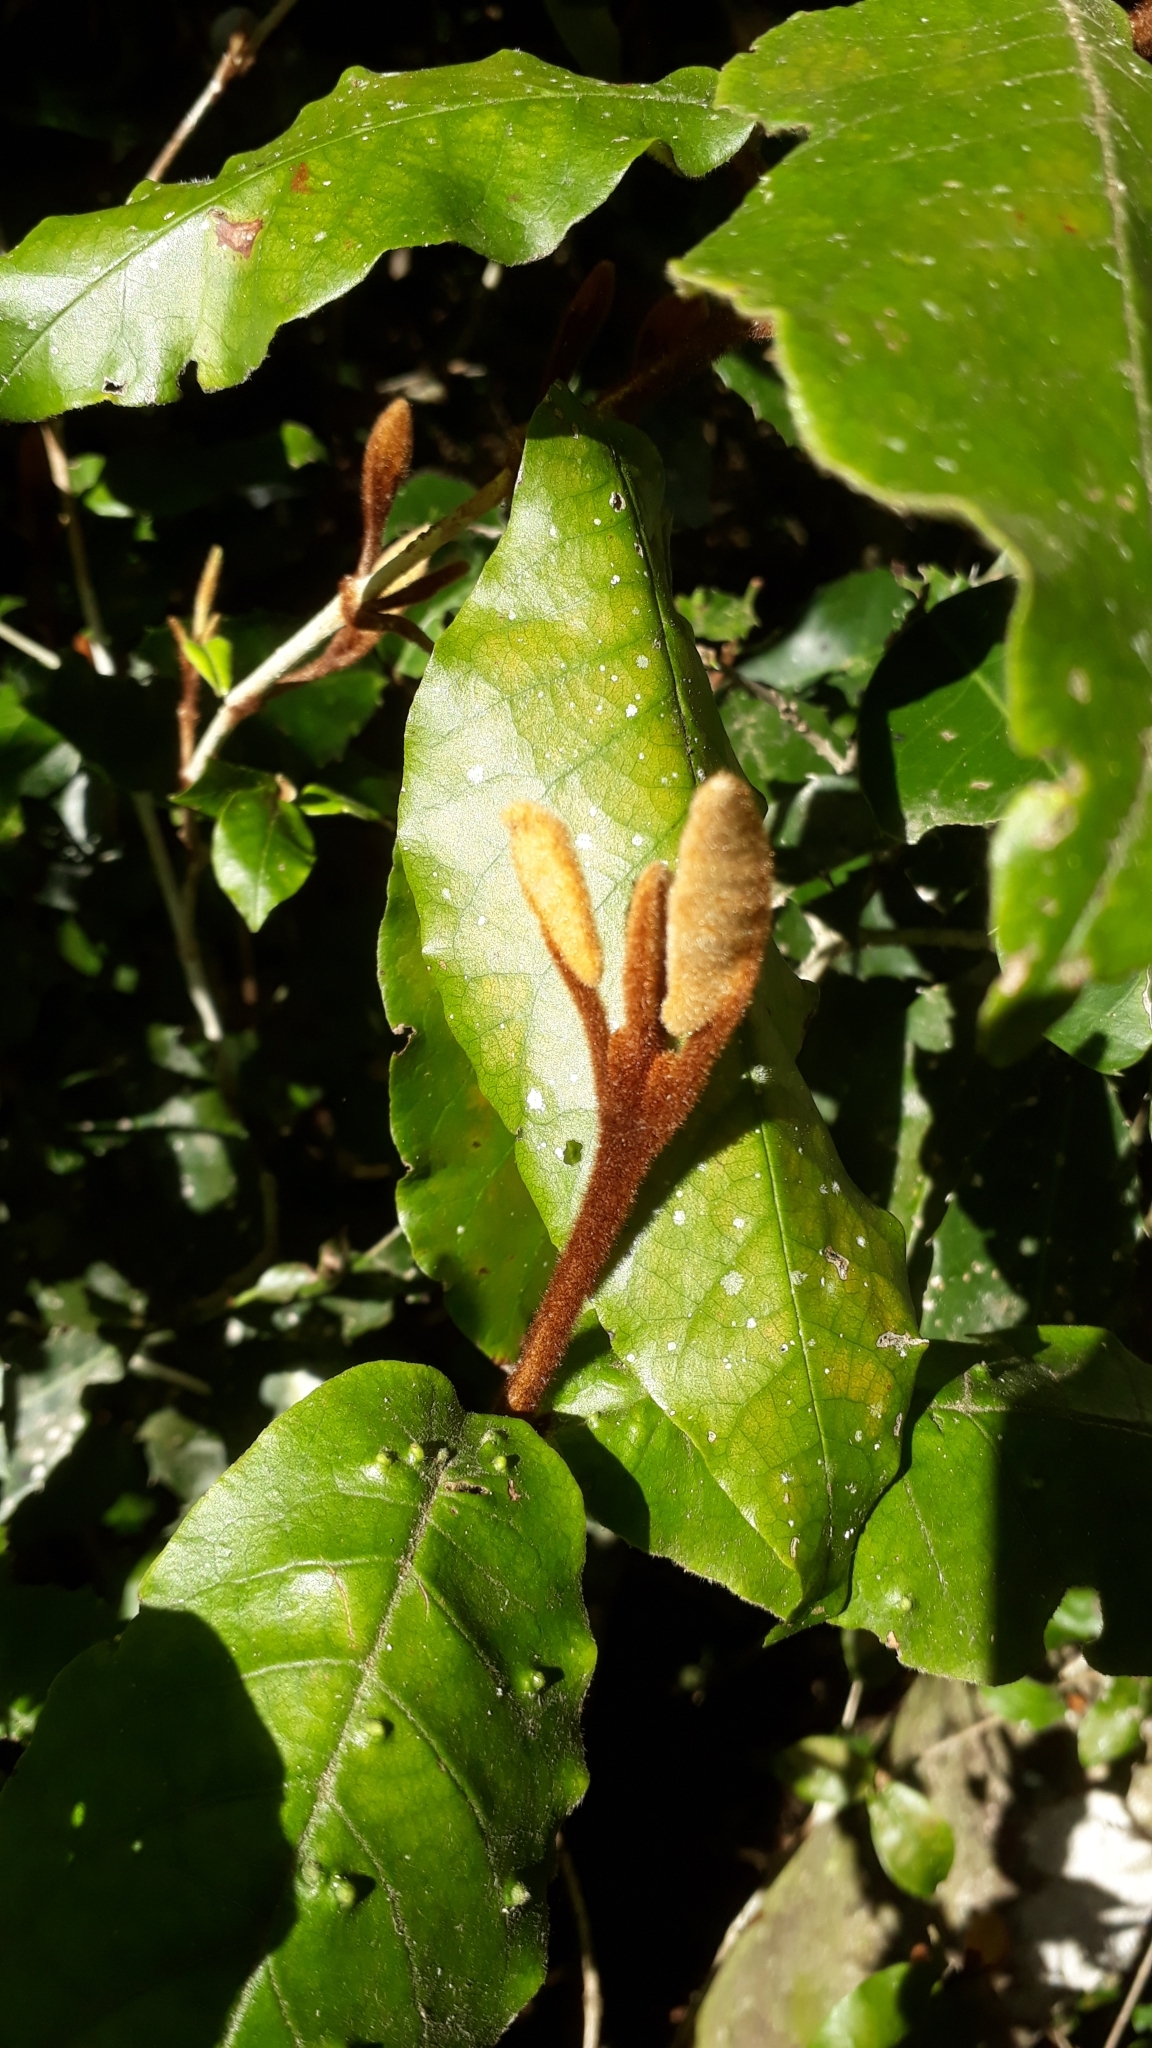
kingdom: Plantae
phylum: Tracheophyta
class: Magnoliopsida
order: Saxifragales
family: Hamamelidaceae
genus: Trichocladus
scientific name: Trichocladus crinitus
